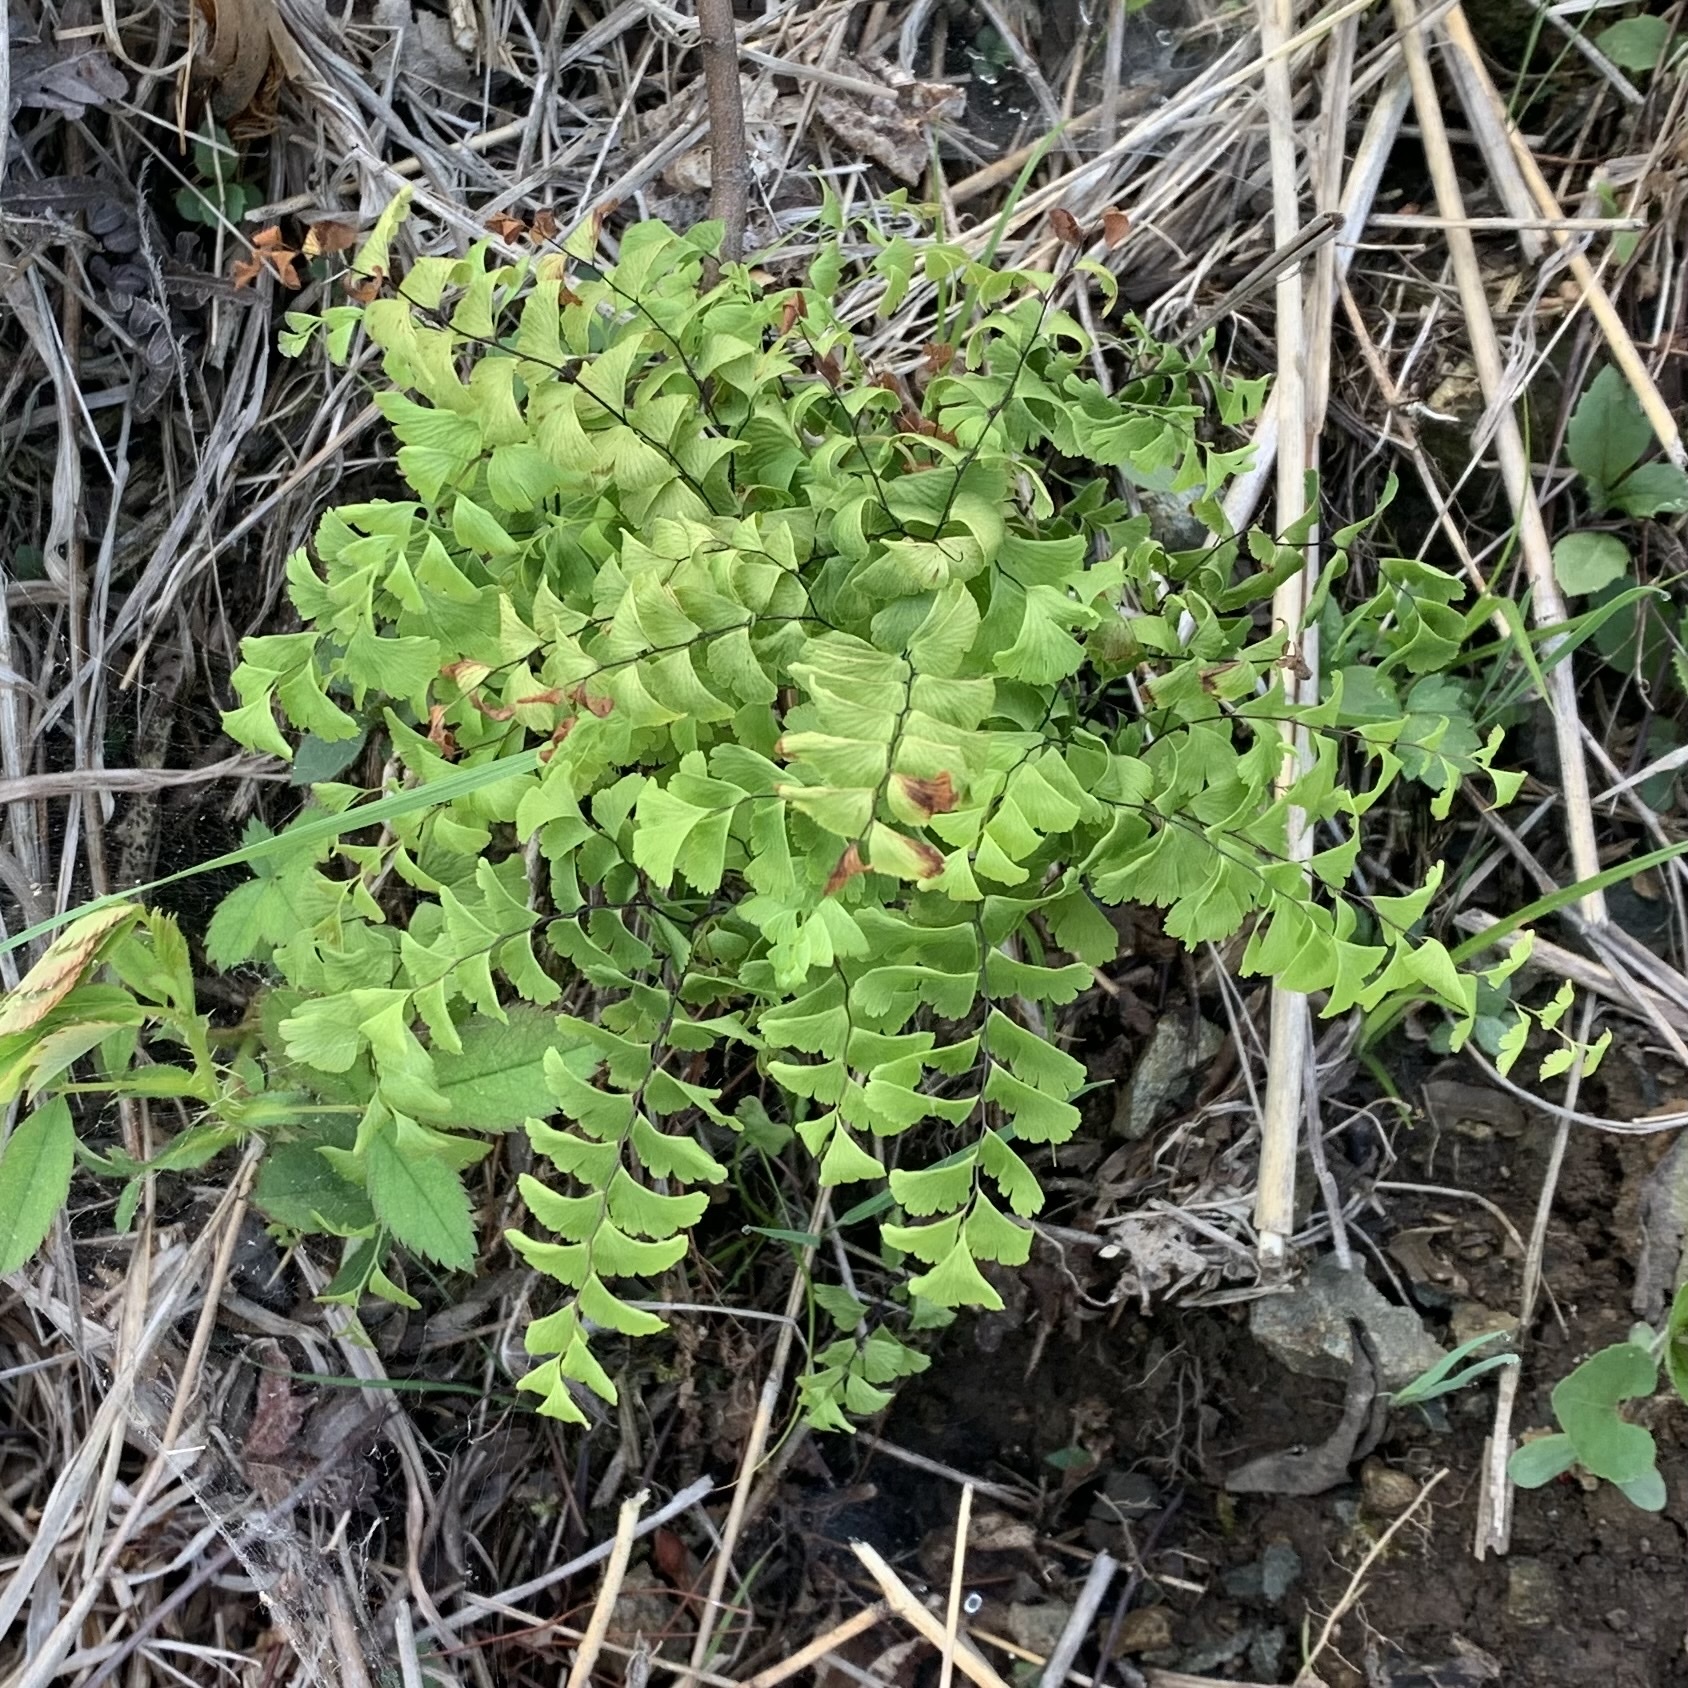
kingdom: Plantae
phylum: Tracheophyta
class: Polypodiopsida
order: Polypodiales
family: Pteridaceae
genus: Adiantum
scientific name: Adiantum pedatum
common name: Five-finger fern
